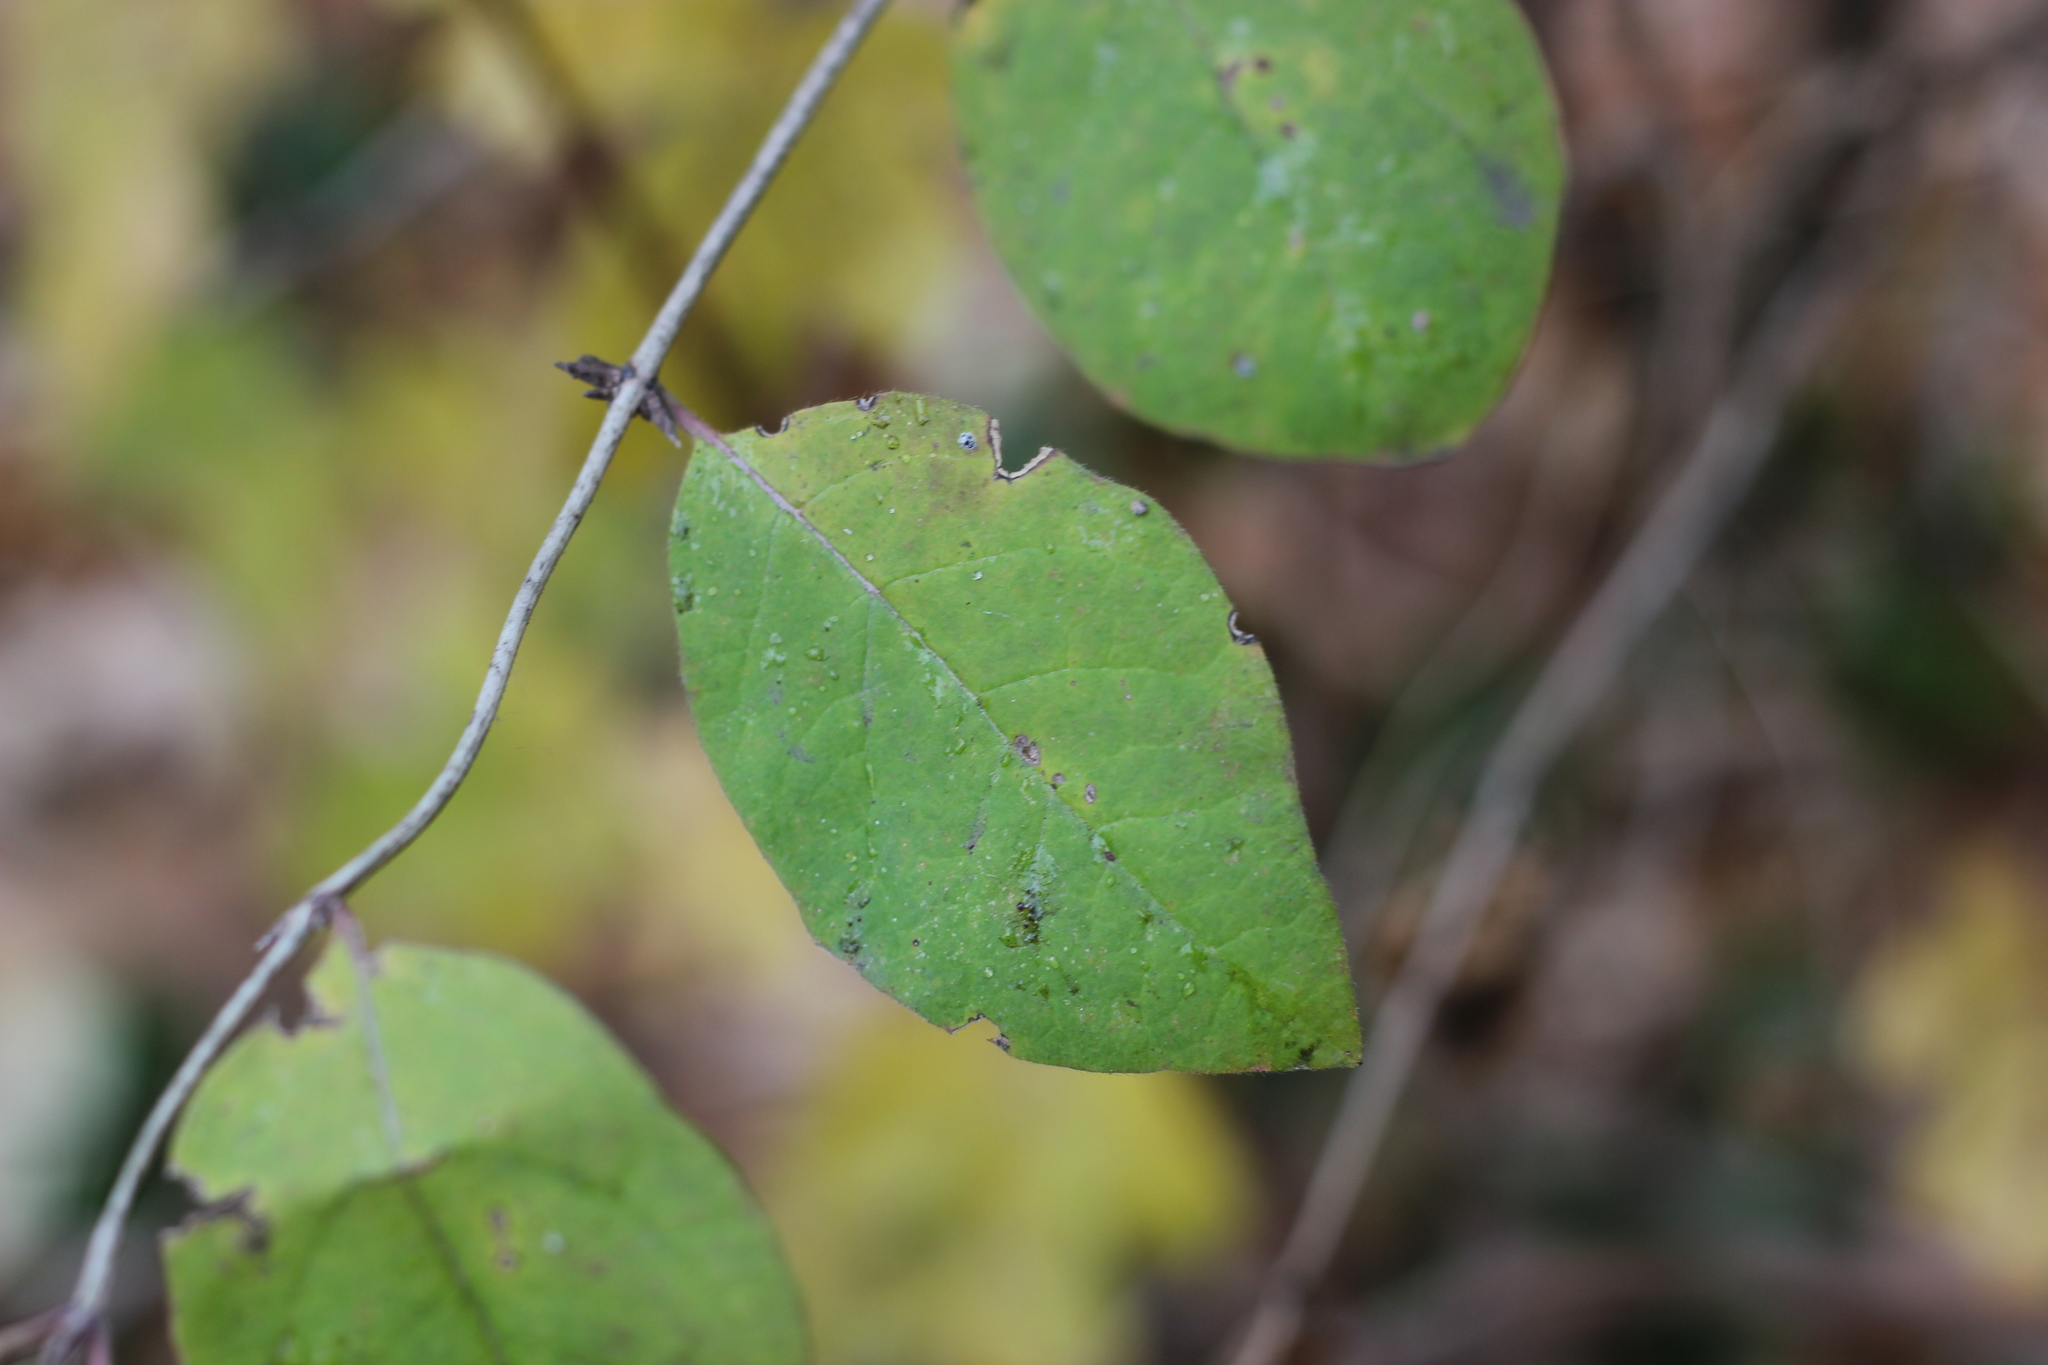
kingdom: Plantae
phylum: Tracheophyta
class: Magnoliopsida
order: Dipsacales
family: Caprifoliaceae
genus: Symphoricarpos
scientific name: Symphoricarpos albus
